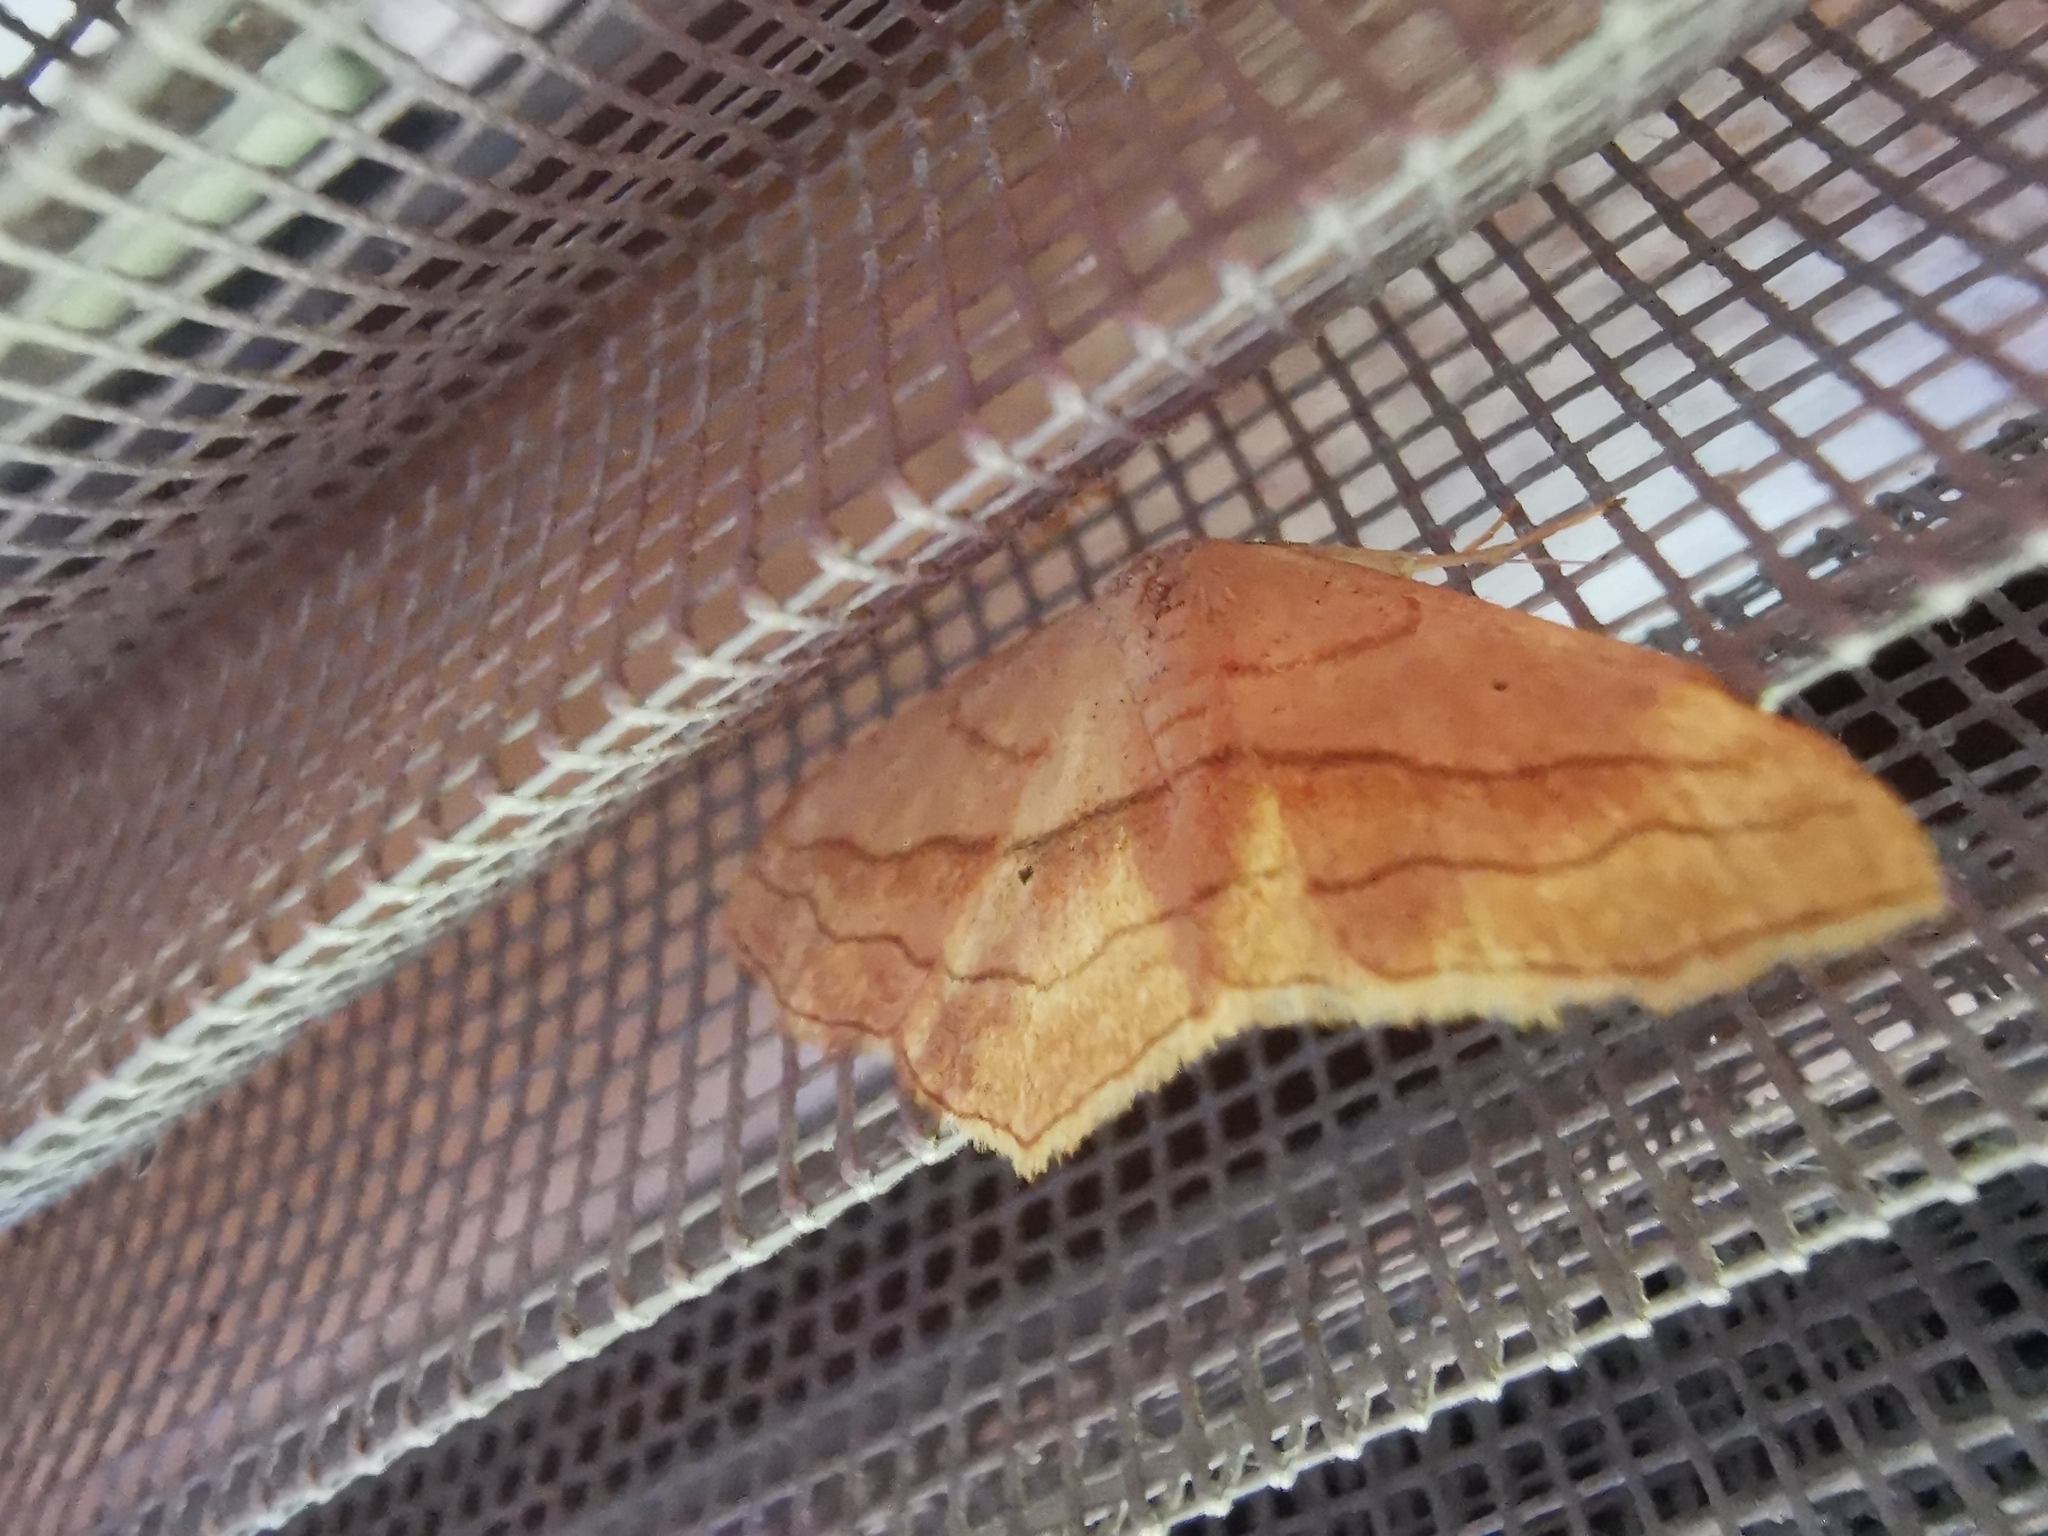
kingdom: Animalia
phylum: Arthropoda
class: Insecta
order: Lepidoptera
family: Geometridae
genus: Scopula
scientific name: Scopula imitaria
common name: Small blood-vein
